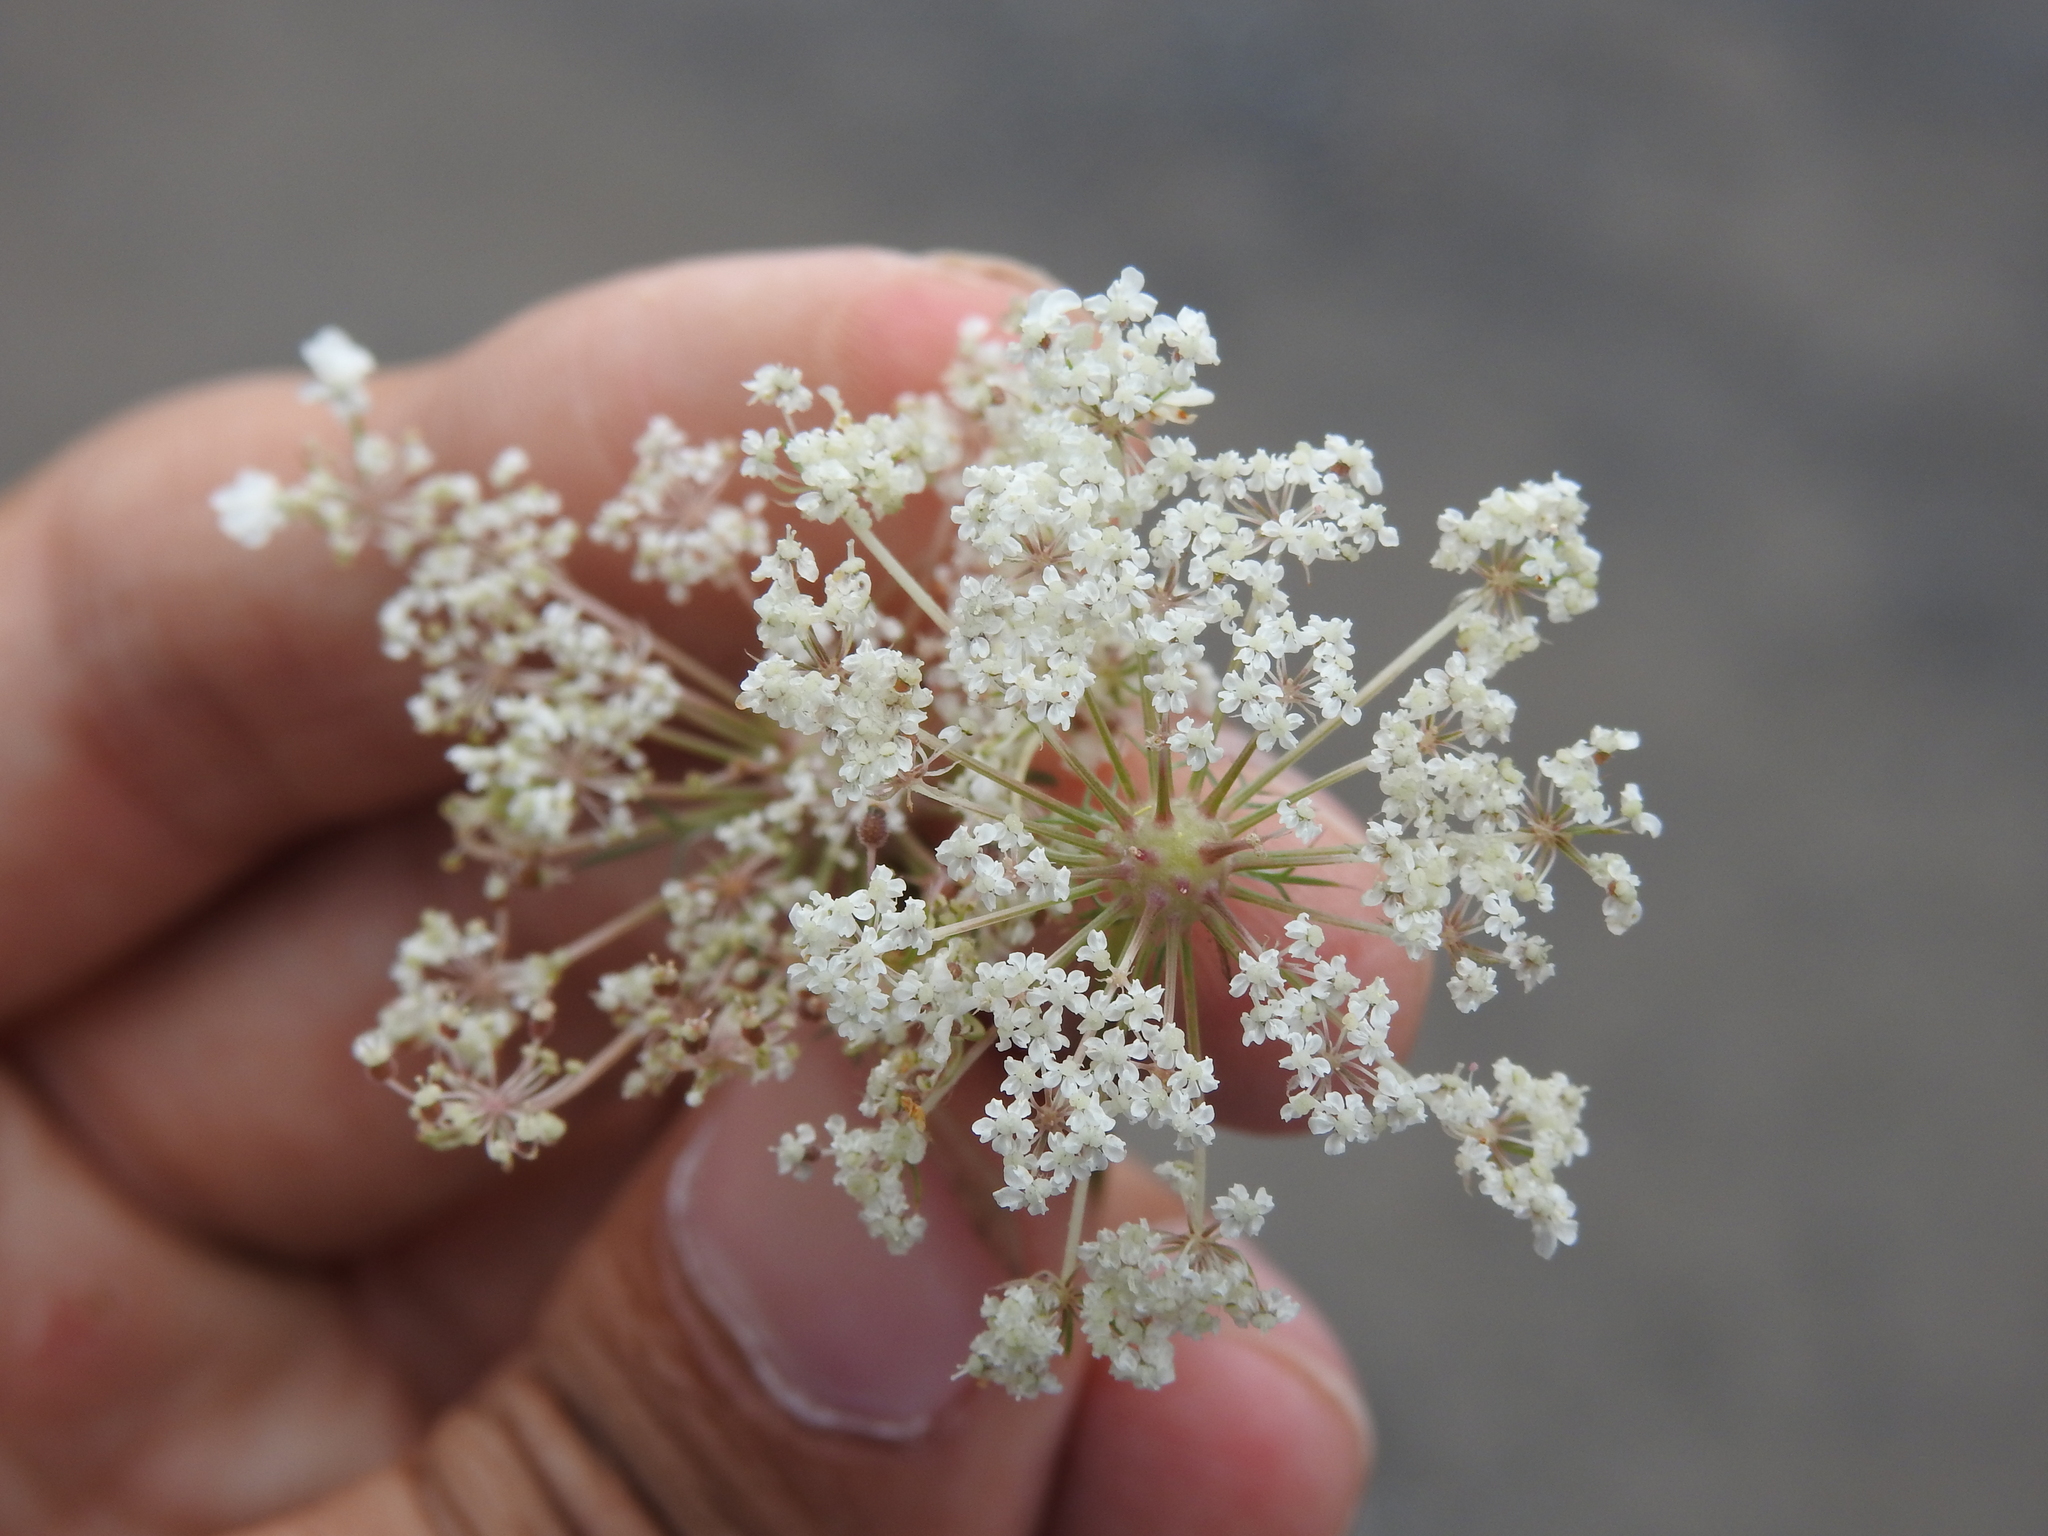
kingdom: Animalia
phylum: Arthropoda
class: Insecta
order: Diptera
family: Cecidomyiidae
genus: Lasioptera
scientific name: Lasioptera carophila
